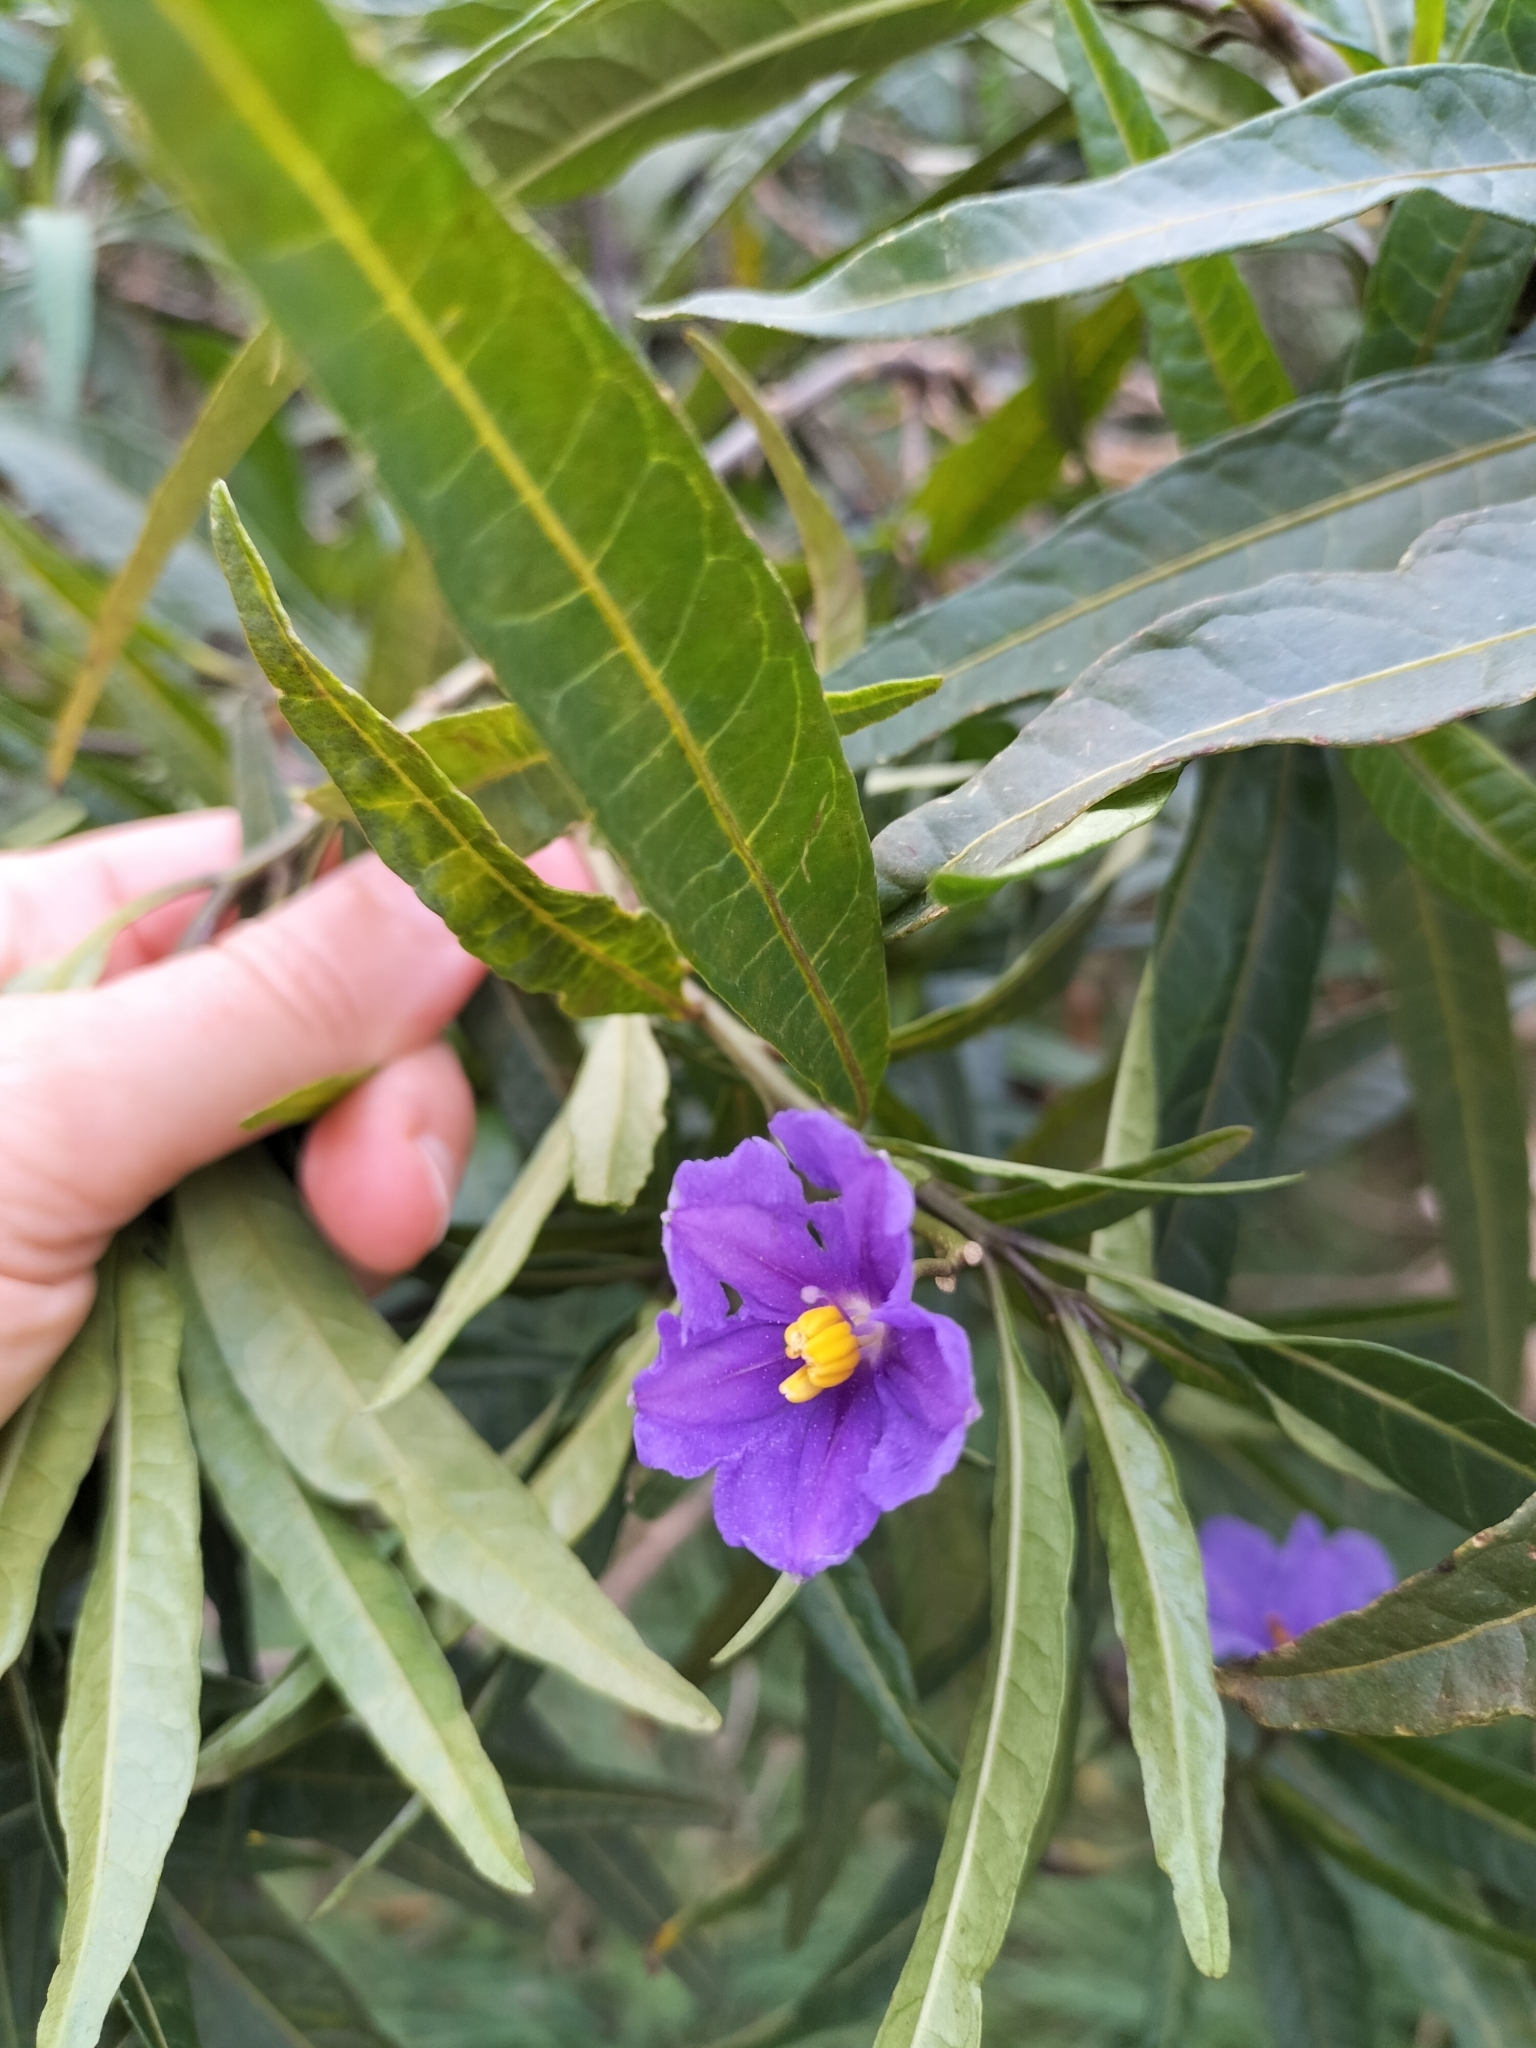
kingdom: Plantae
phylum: Tracheophyta
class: Magnoliopsida
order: Solanales
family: Solanaceae
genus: Solanum
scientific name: Solanum laciniatum
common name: Kangaroo-apple
